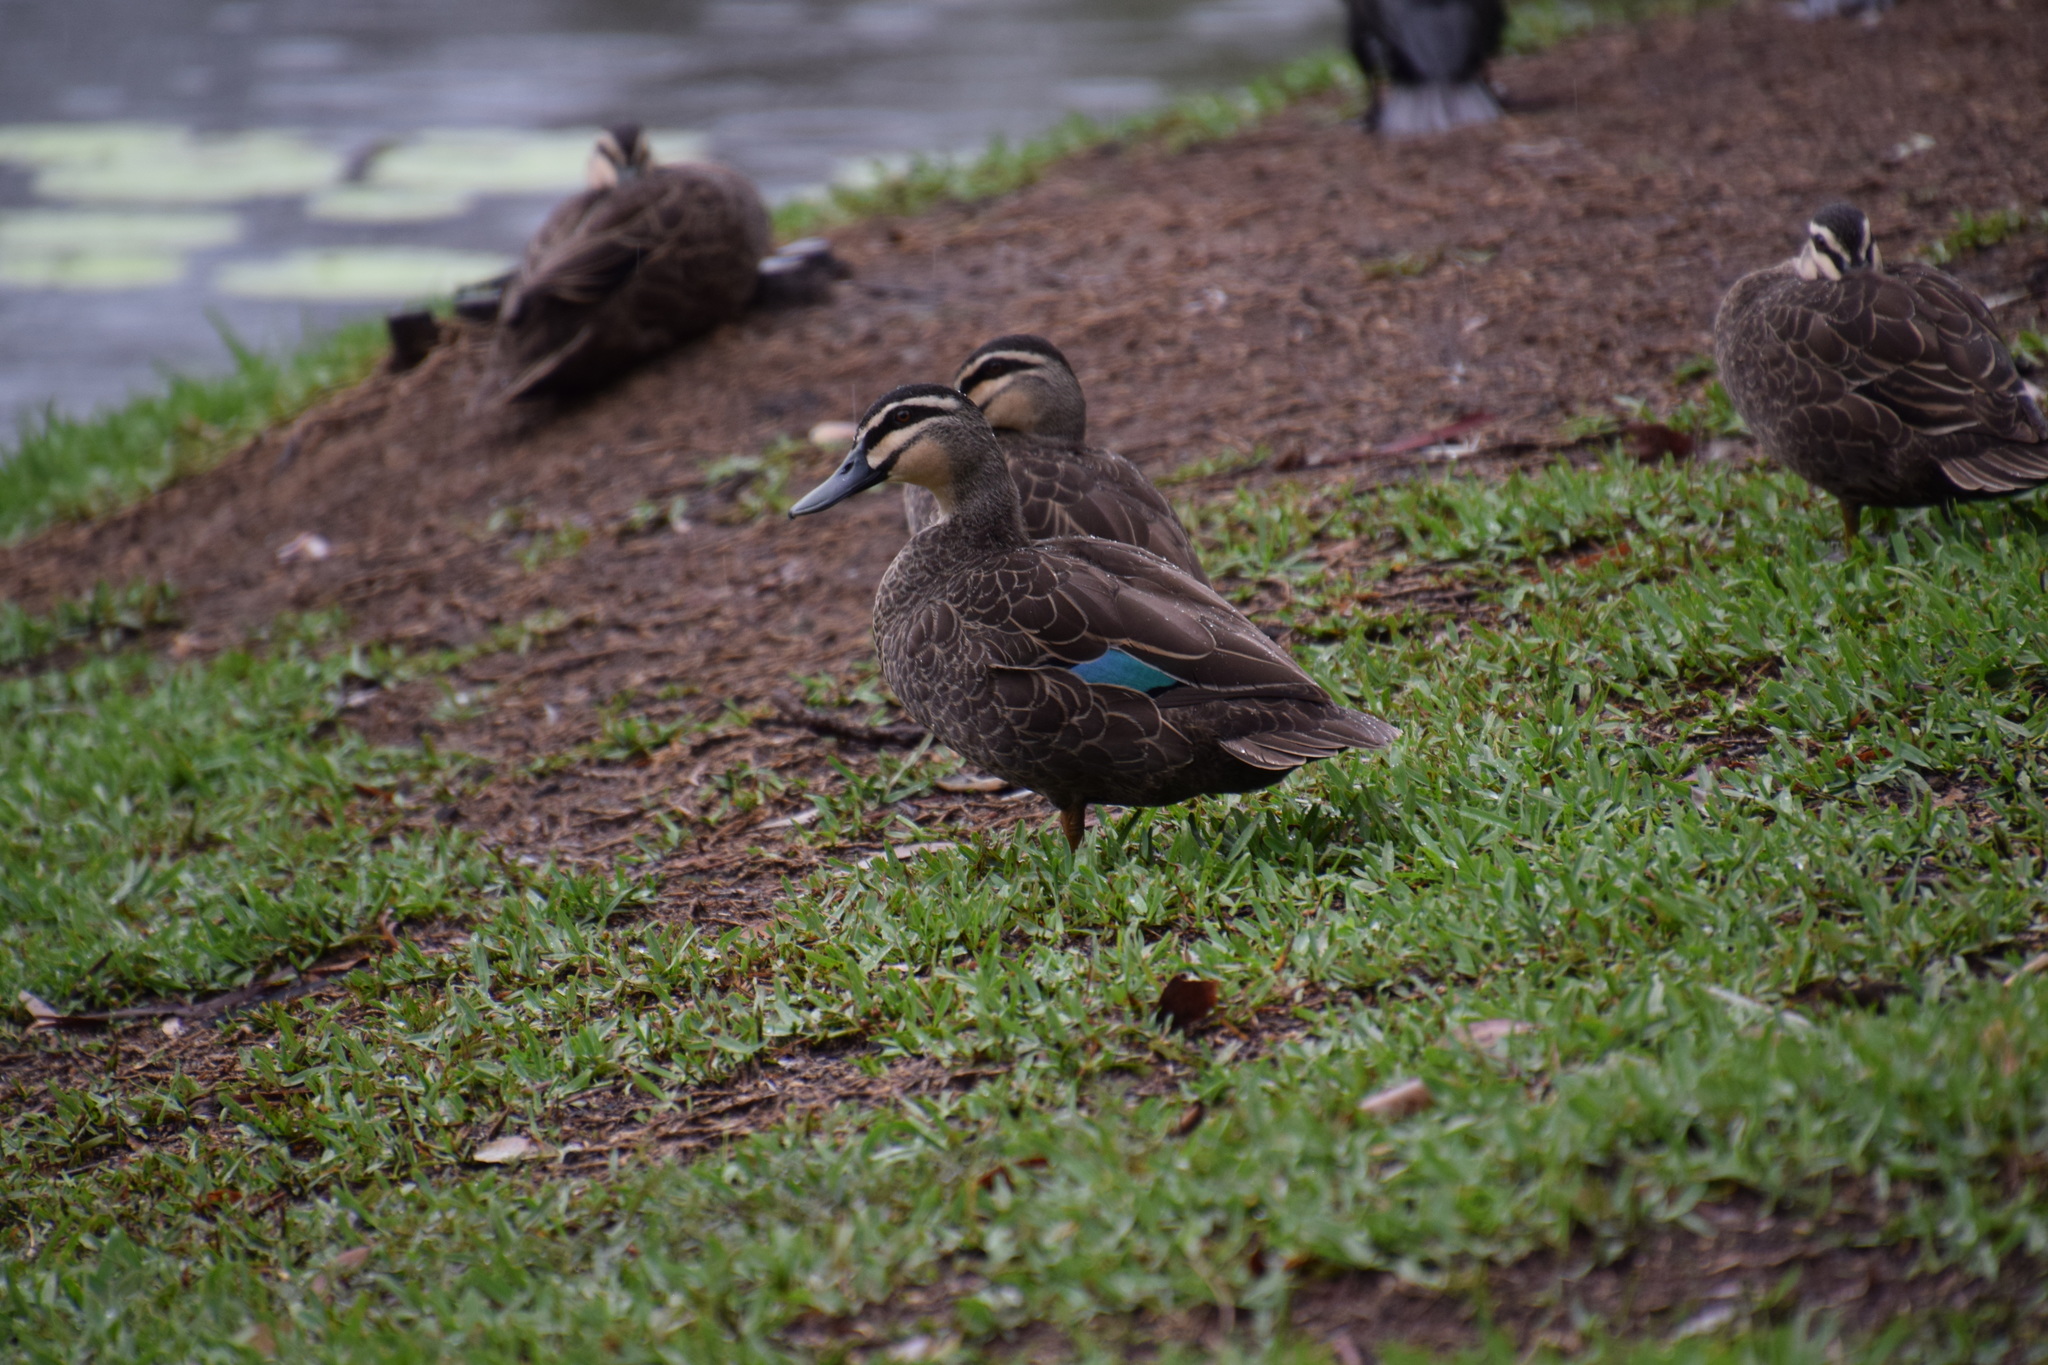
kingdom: Animalia
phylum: Chordata
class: Aves
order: Anseriformes
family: Anatidae
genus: Anas
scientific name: Anas superciliosa
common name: Pacific black duck
